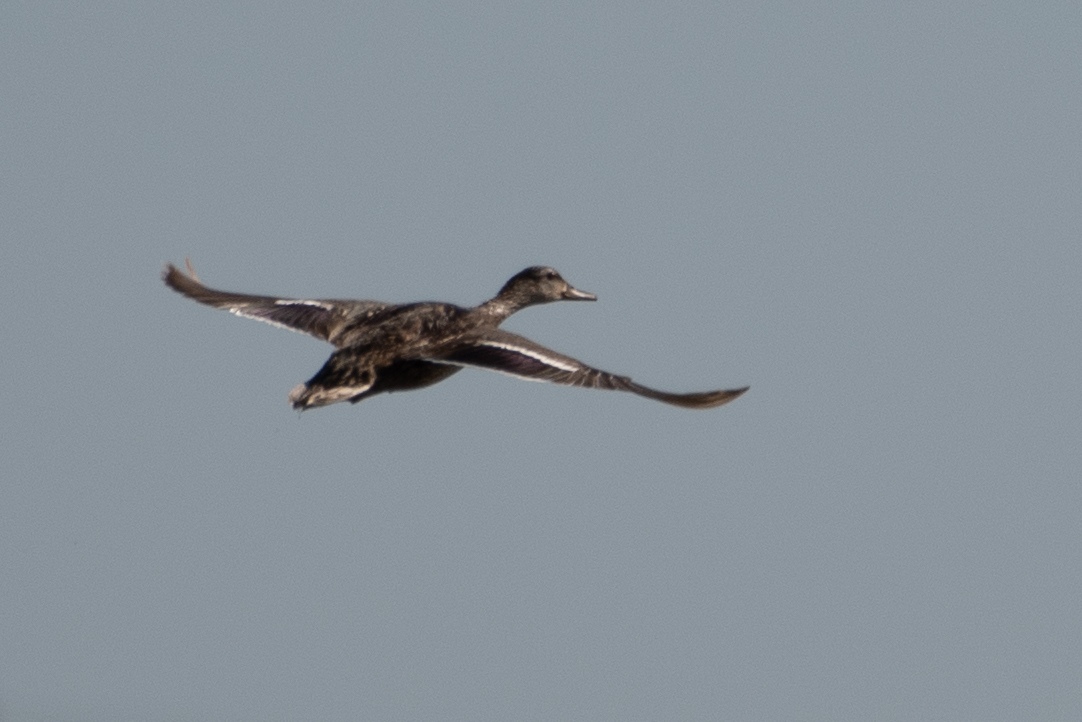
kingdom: Animalia
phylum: Chordata
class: Aves
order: Anseriformes
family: Anatidae
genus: Anas
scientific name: Anas platyrhynchos
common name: Mallard
